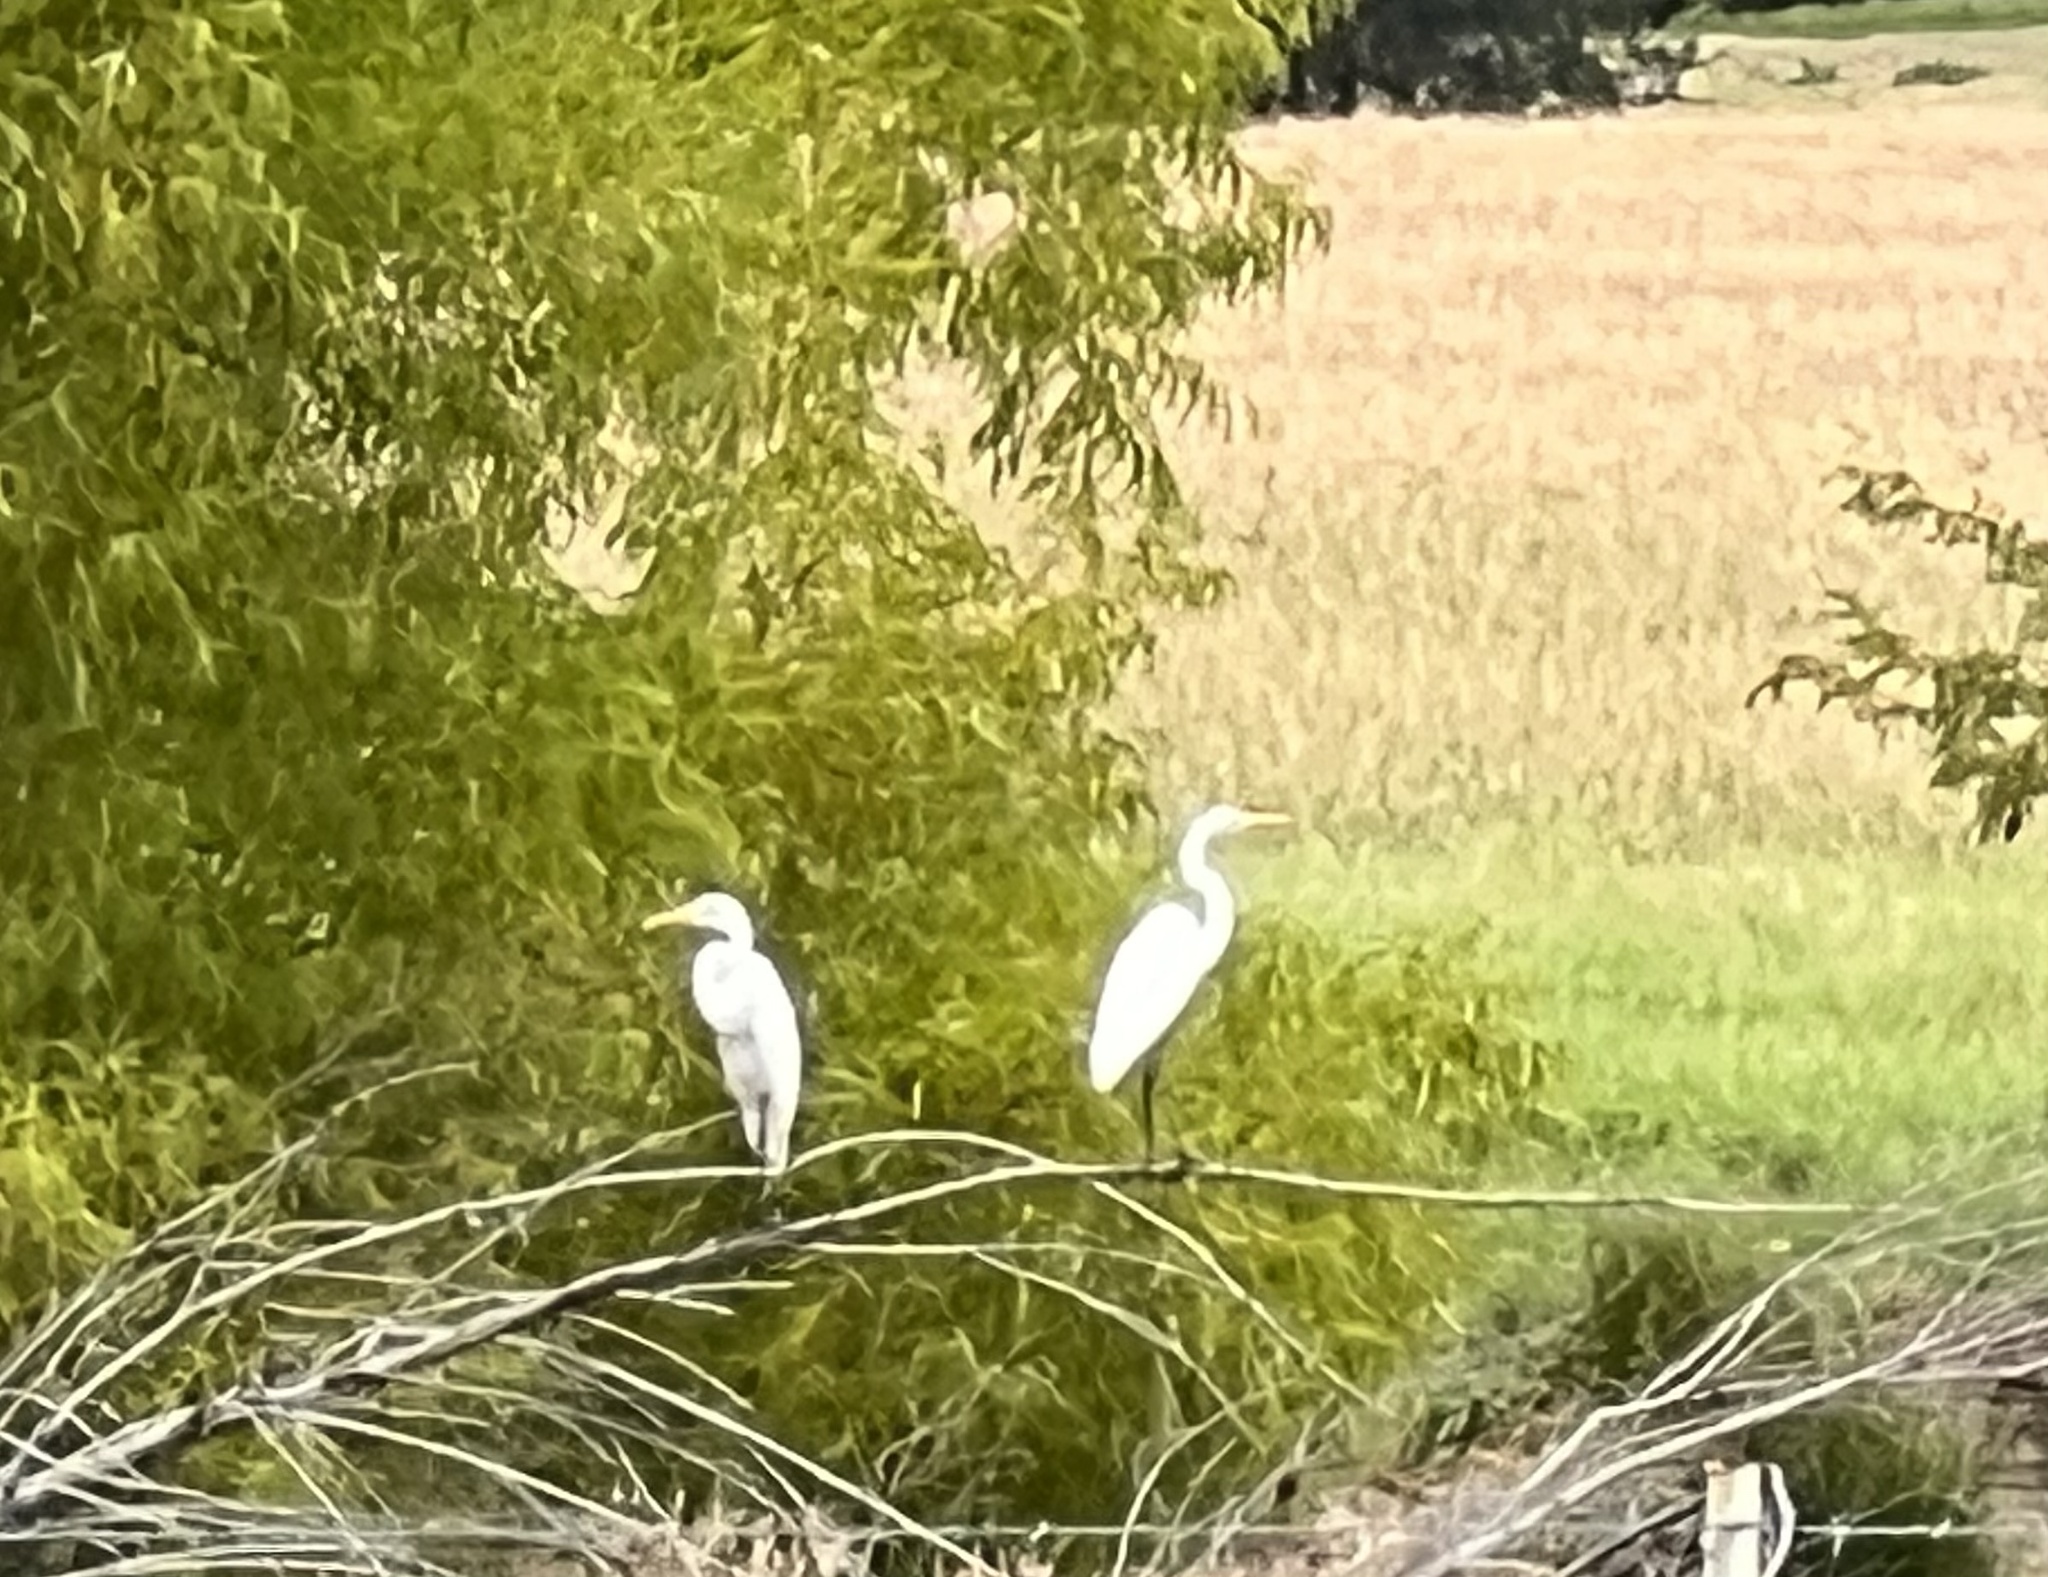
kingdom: Animalia
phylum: Chordata
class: Aves
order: Pelecaniformes
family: Ardeidae
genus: Ardea
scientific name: Ardea alba
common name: Great egret
